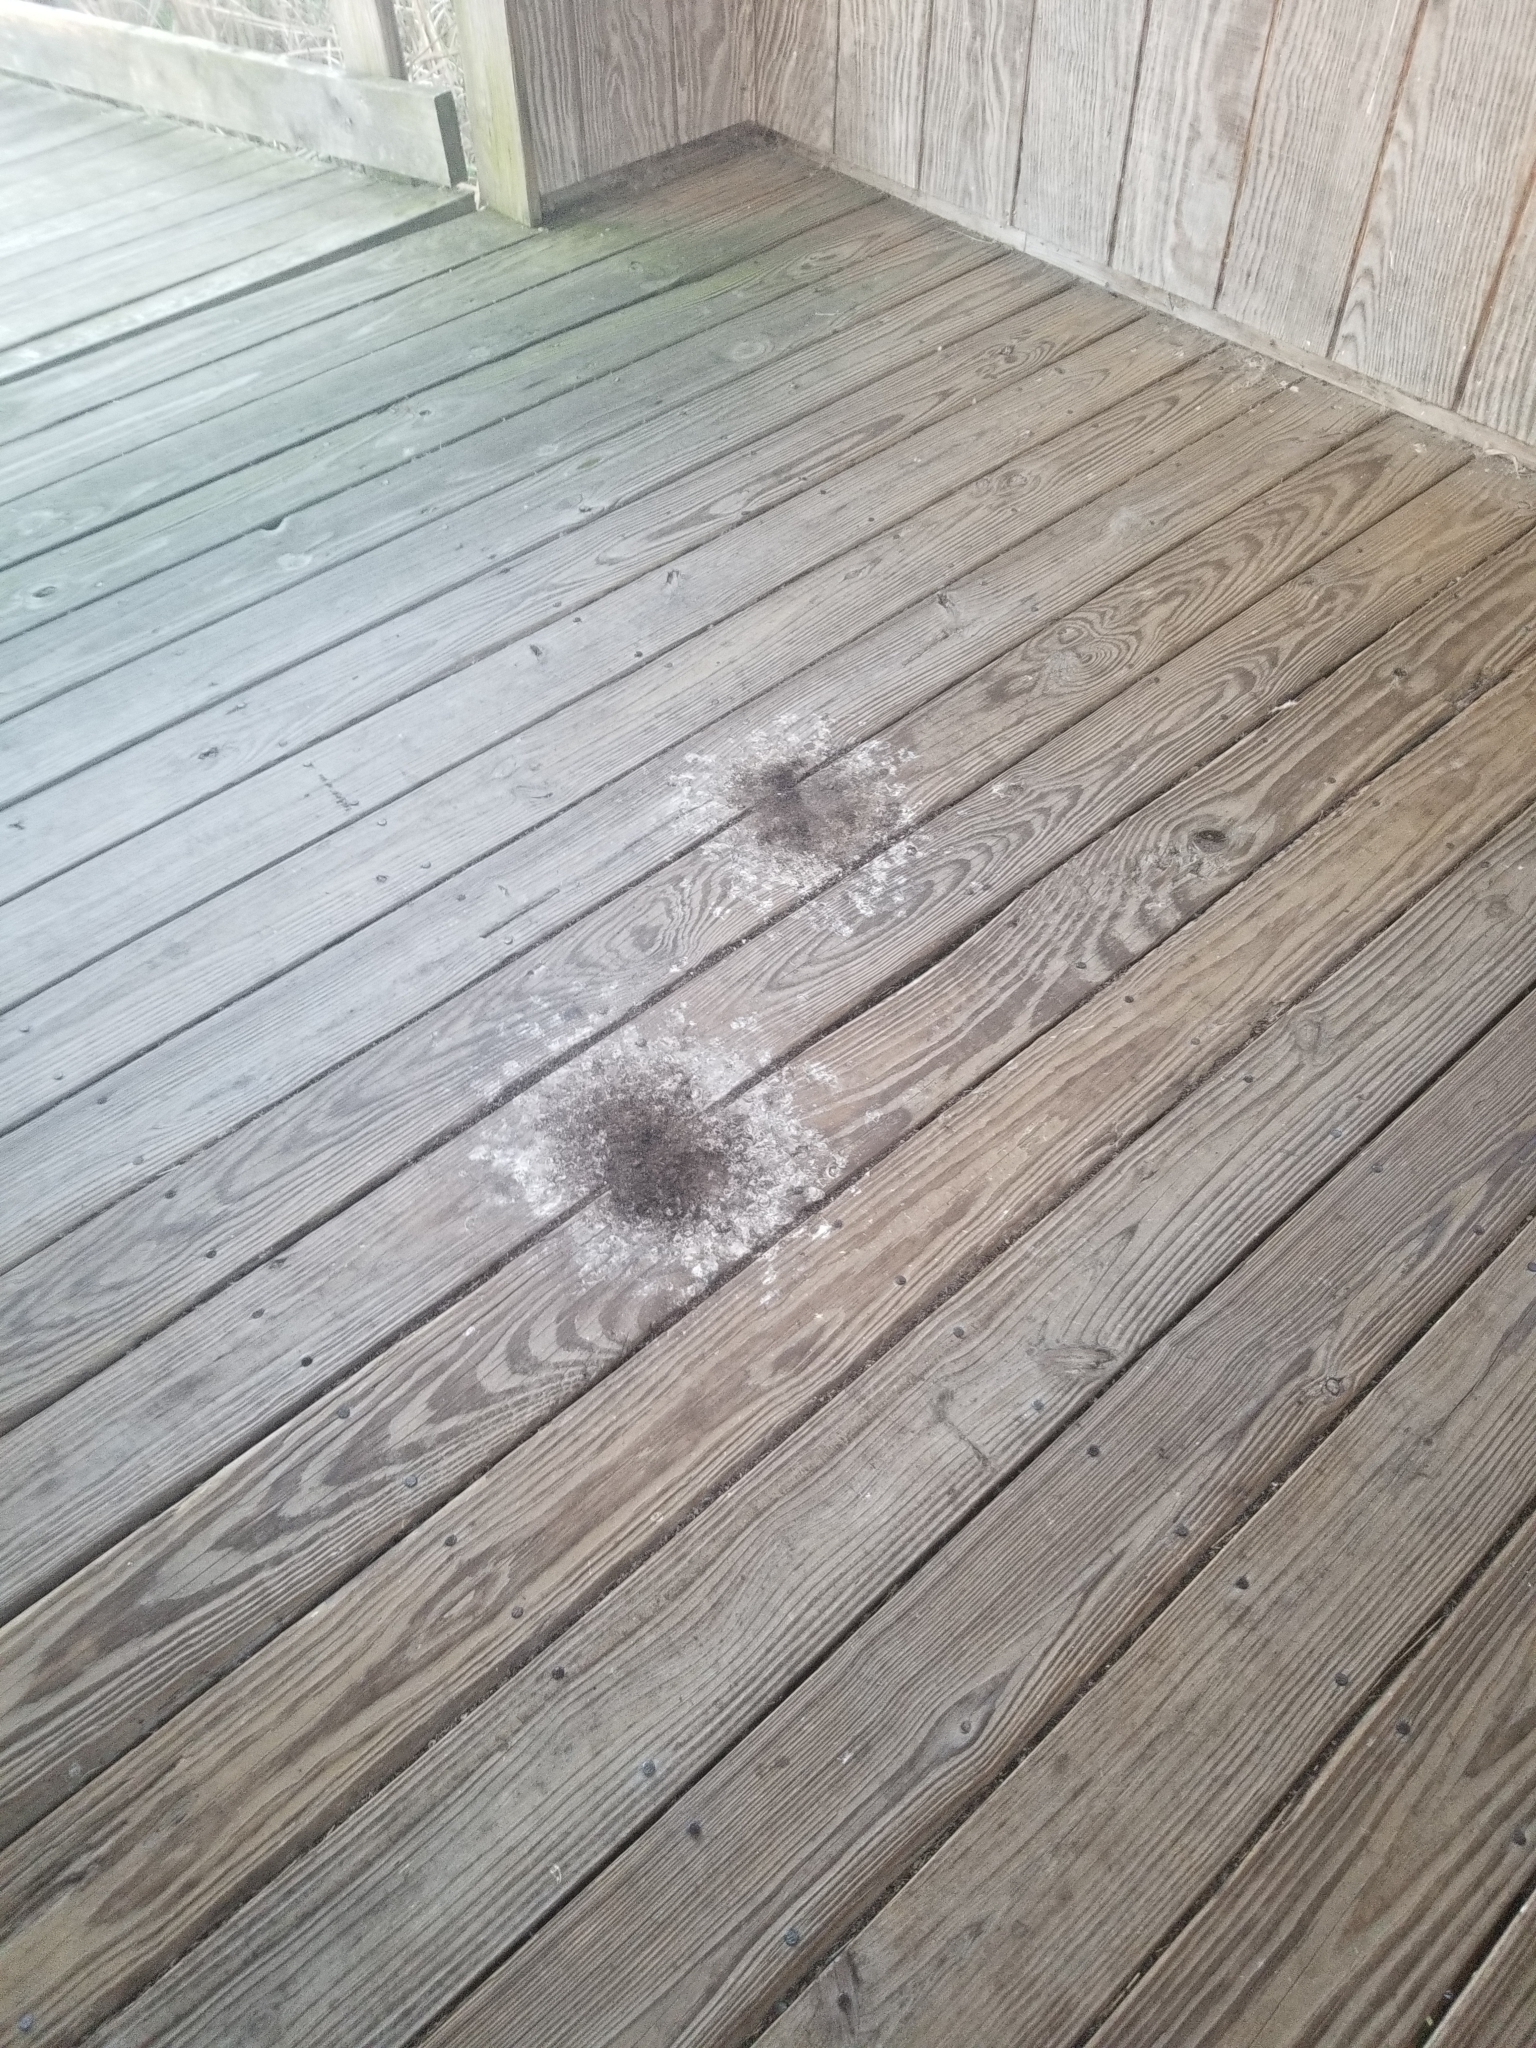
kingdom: Animalia
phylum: Chordata
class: Aves
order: Passeriformes
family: Hirundinidae
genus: Hirundo
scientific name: Hirundo rustica
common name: Barn swallow
